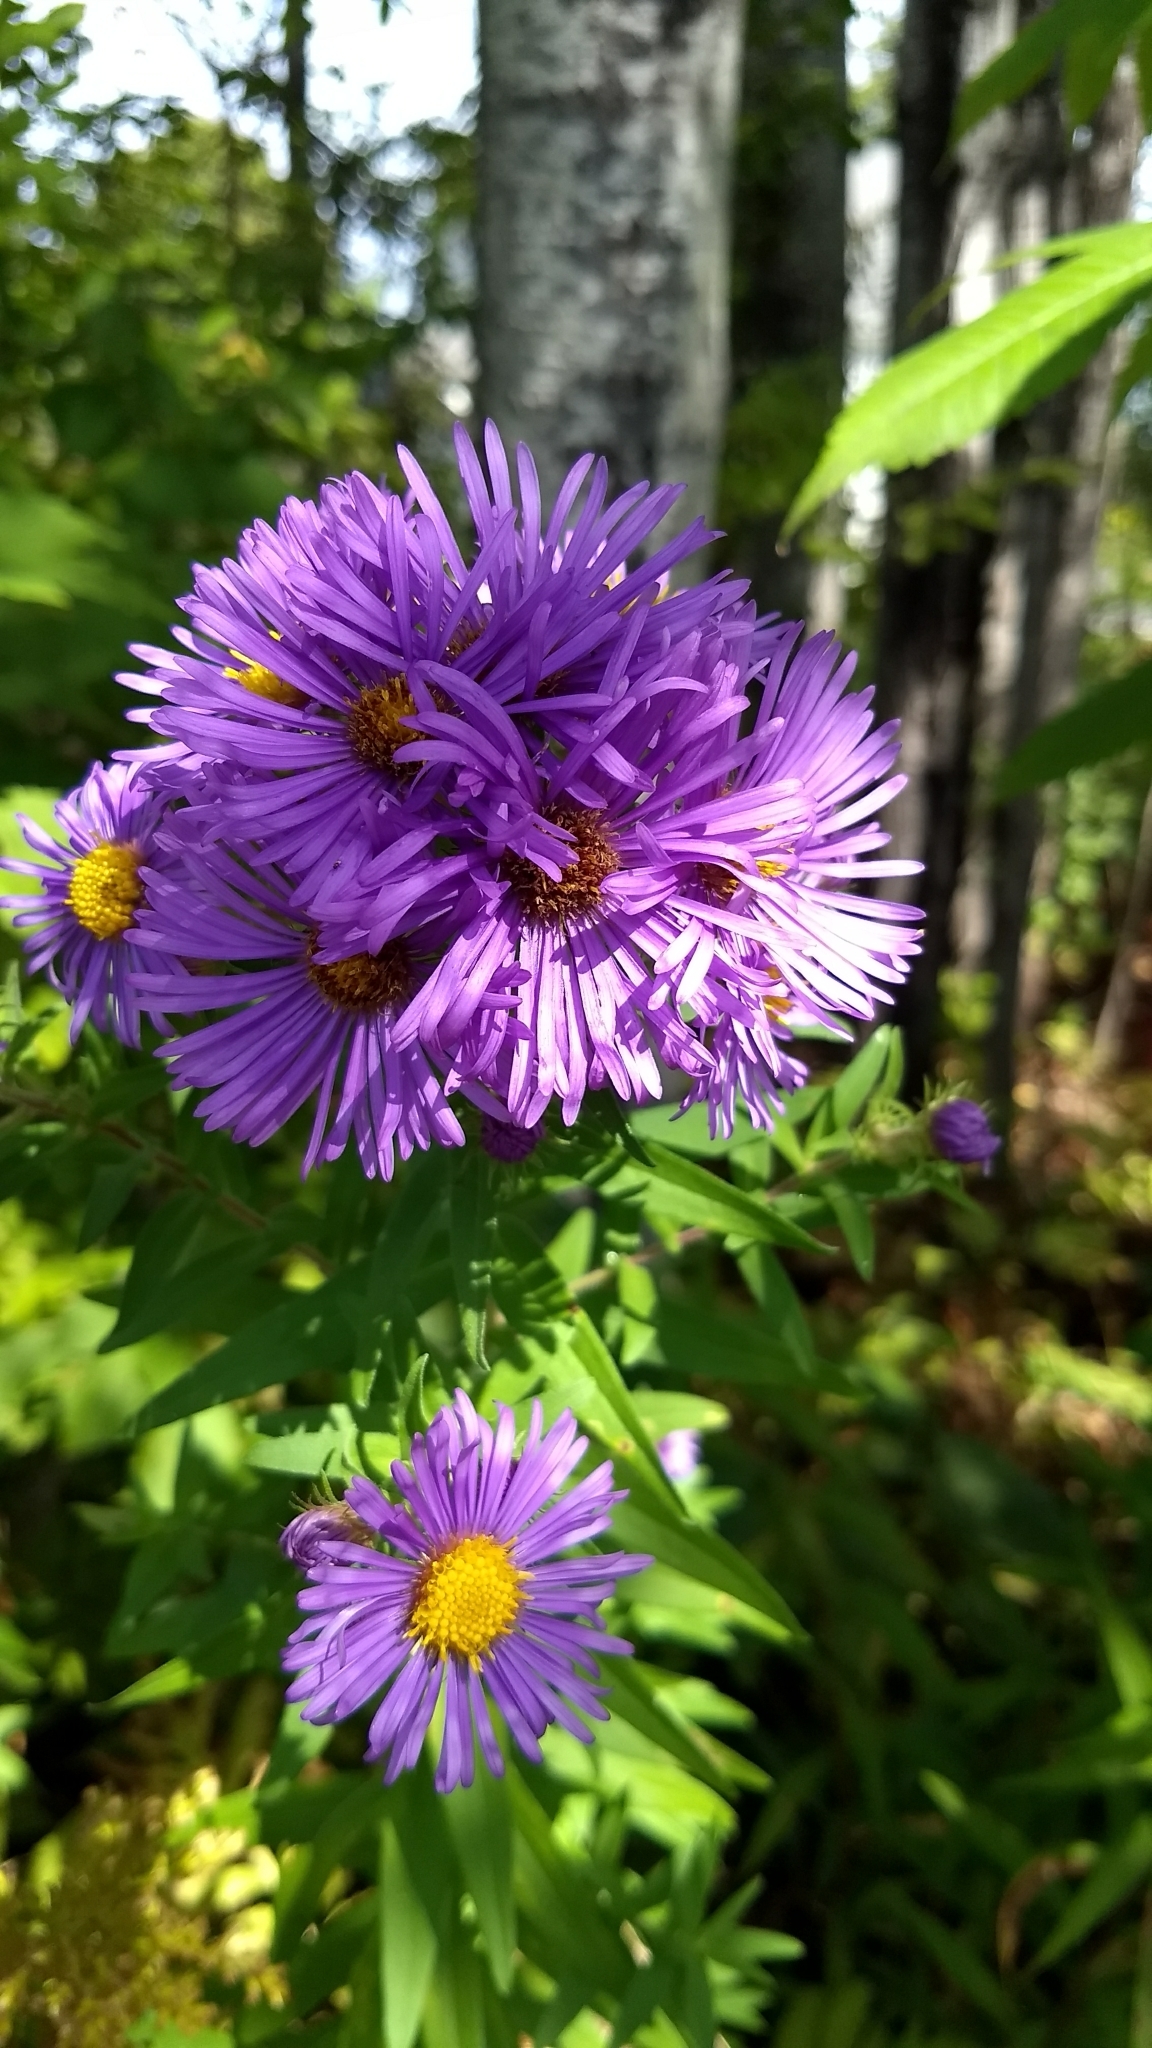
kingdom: Plantae
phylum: Tracheophyta
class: Magnoliopsida
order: Asterales
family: Asteraceae
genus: Symphyotrichum
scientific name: Symphyotrichum novae-angliae
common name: Michaelmas daisy
